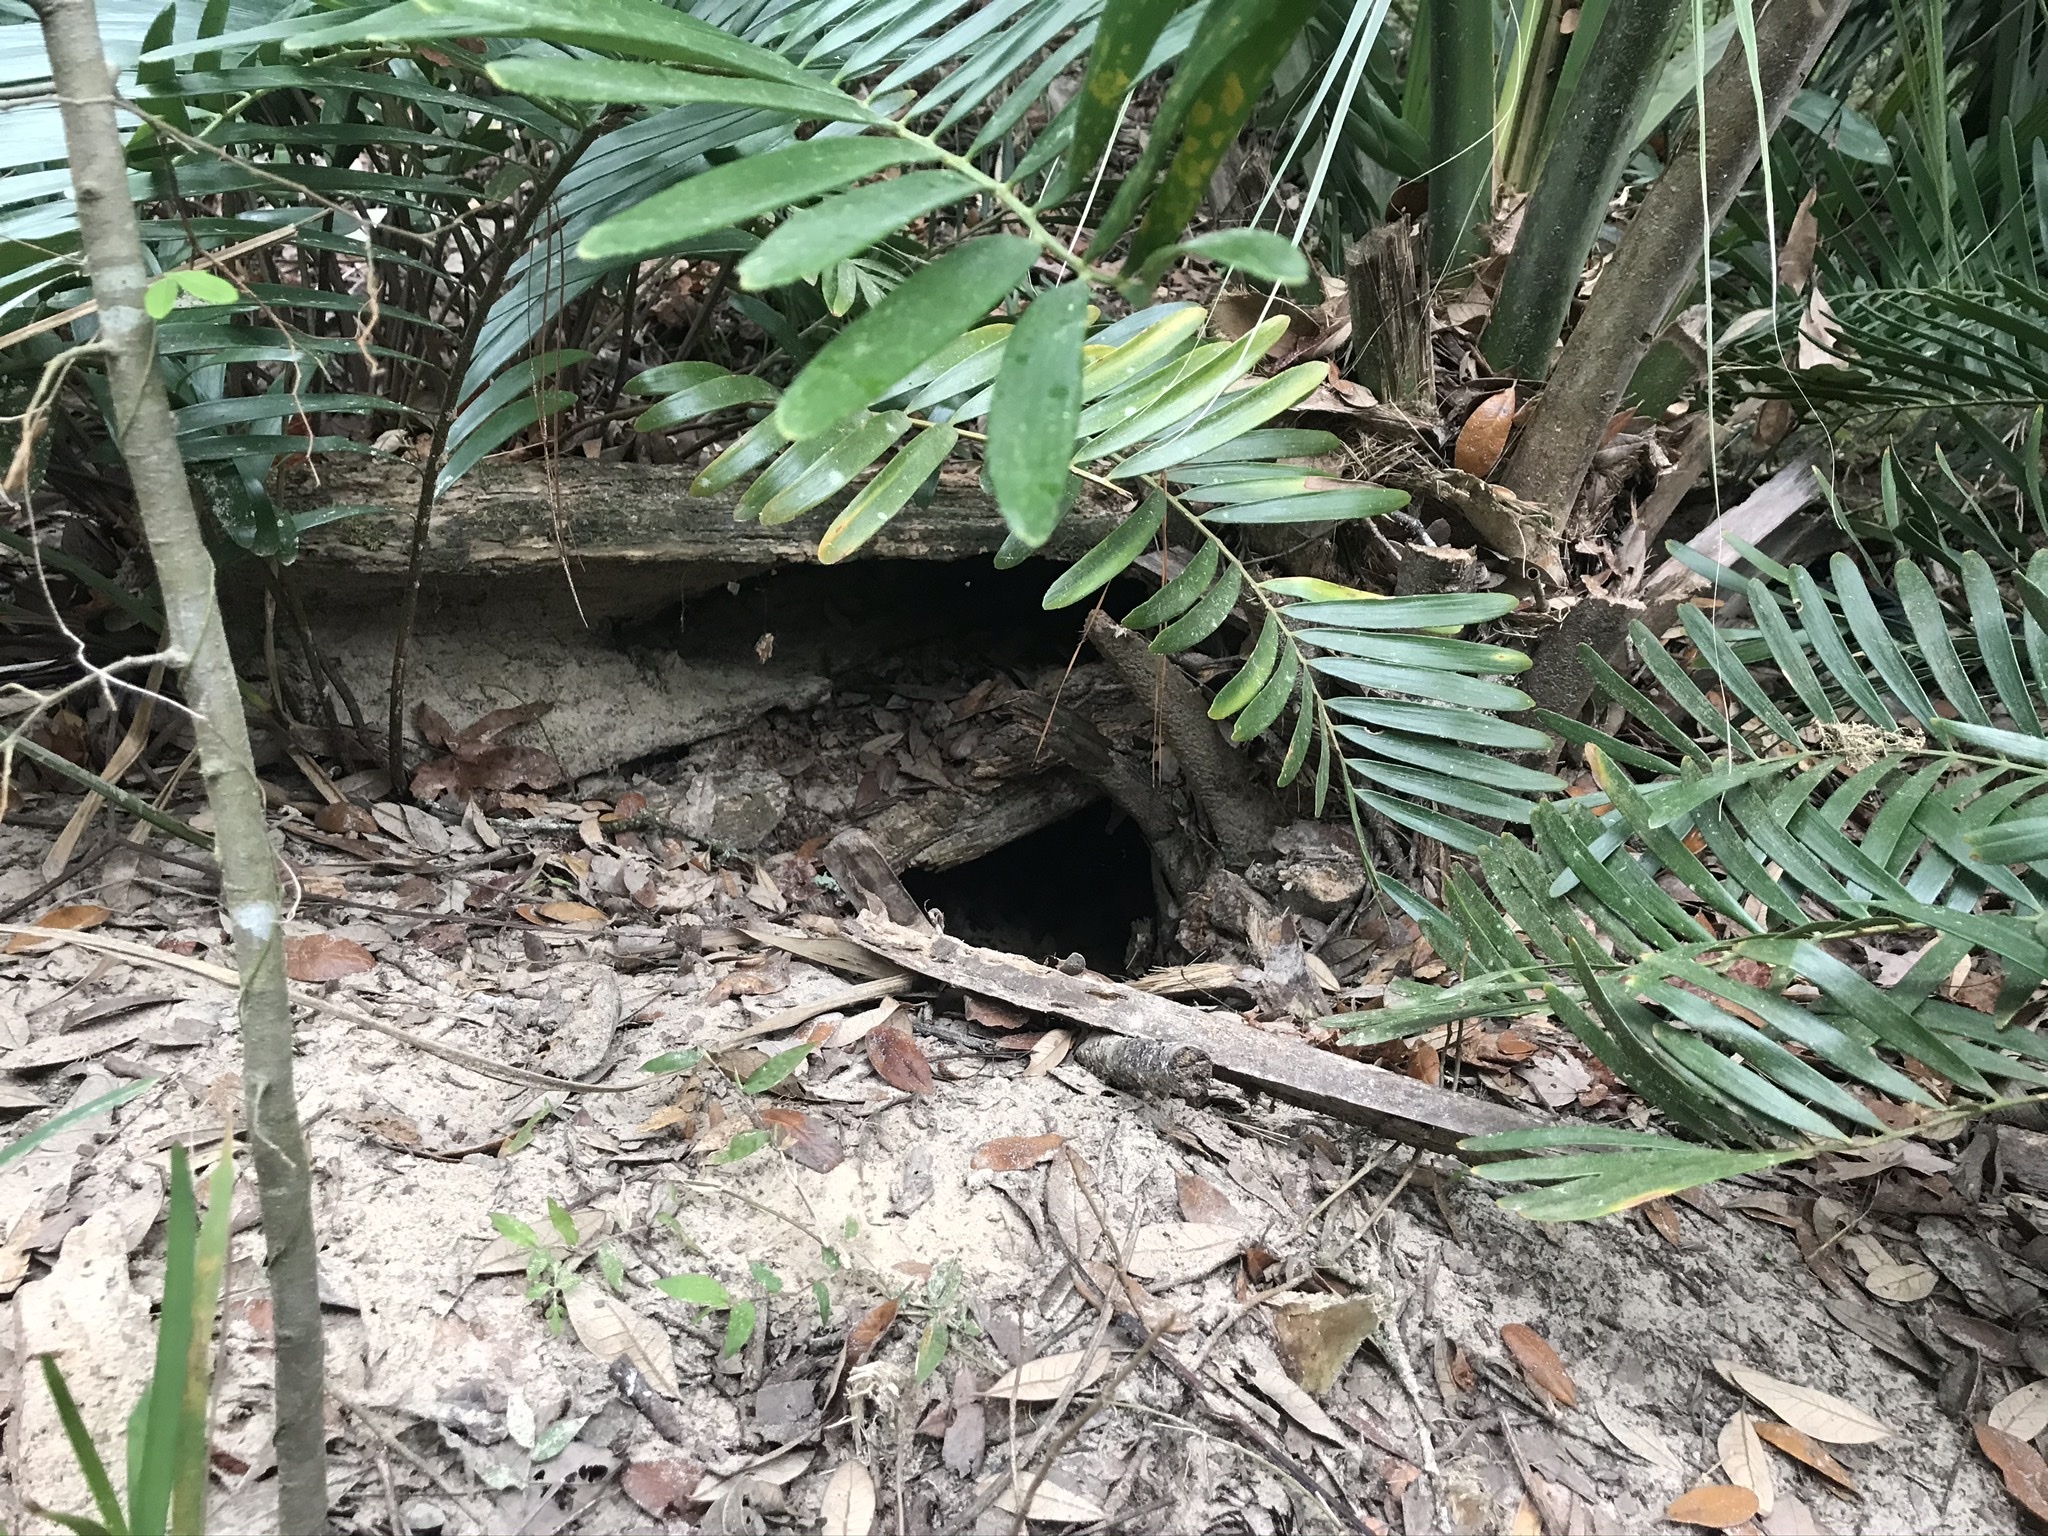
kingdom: Animalia
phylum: Chordata
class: Testudines
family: Testudinidae
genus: Gopherus
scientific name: Gopherus polyphemus
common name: Florida gopher tortoise
